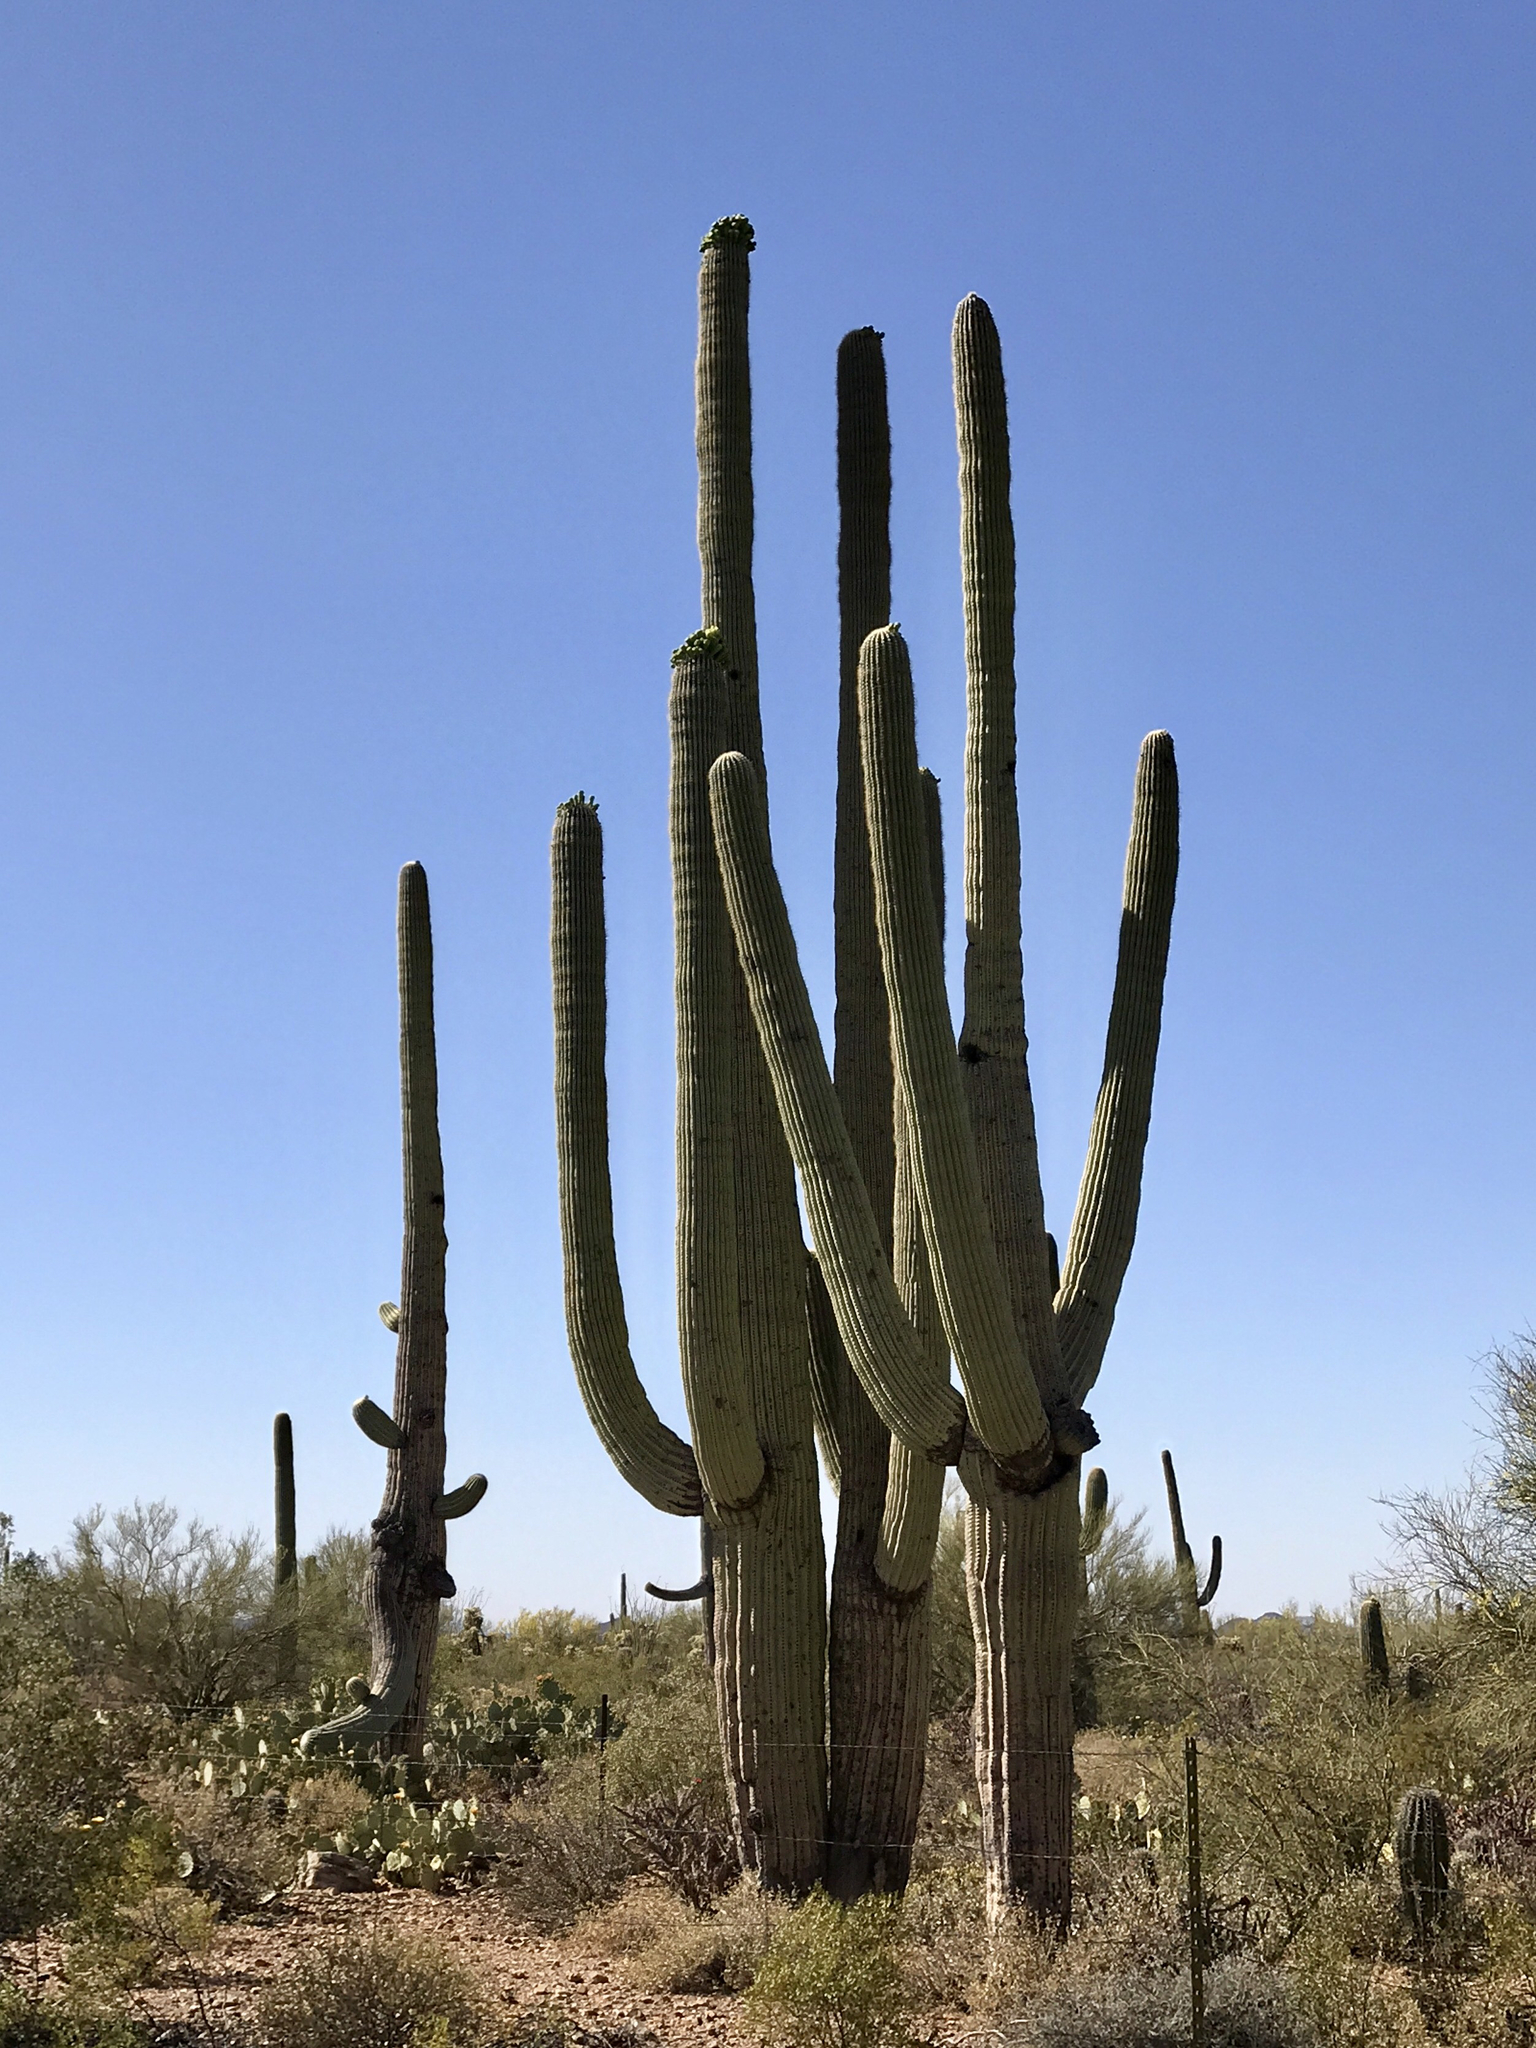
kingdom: Plantae
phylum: Tracheophyta
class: Magnoliopsida
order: Caryophyllales
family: Cactaceae
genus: Carnegiea
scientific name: Carnegiea gigantea
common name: Saguaro
